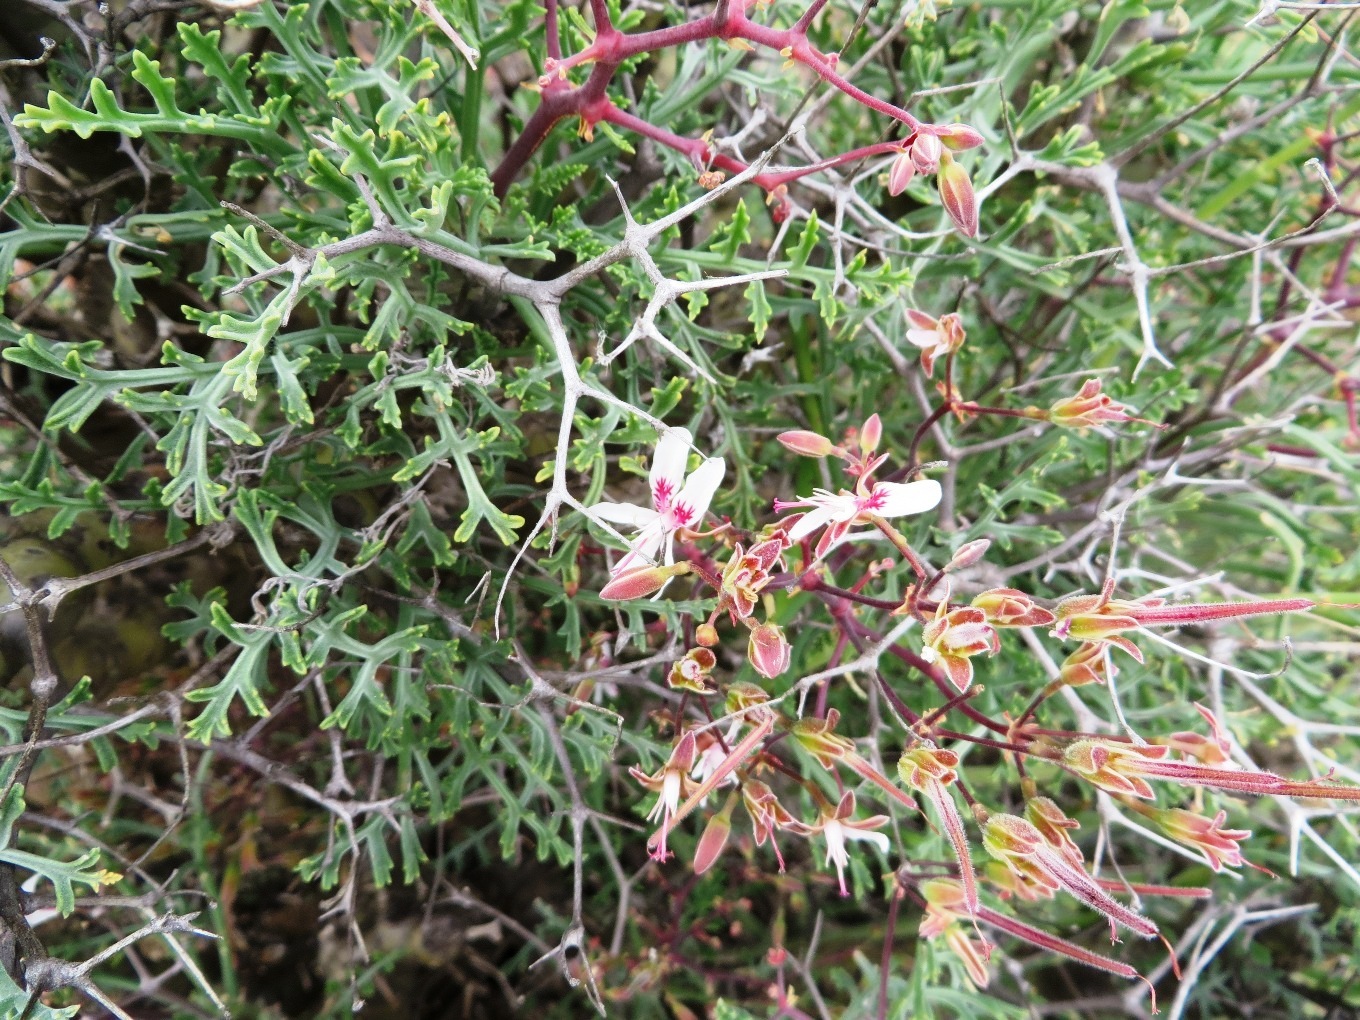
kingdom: Plantae
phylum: Tracheophyta
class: Magnoliopsida
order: Geraniales
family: Geraniaceae
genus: Pelargonium
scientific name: Pelargonium crithmifolium
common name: Samphire-leaf pelargonium
